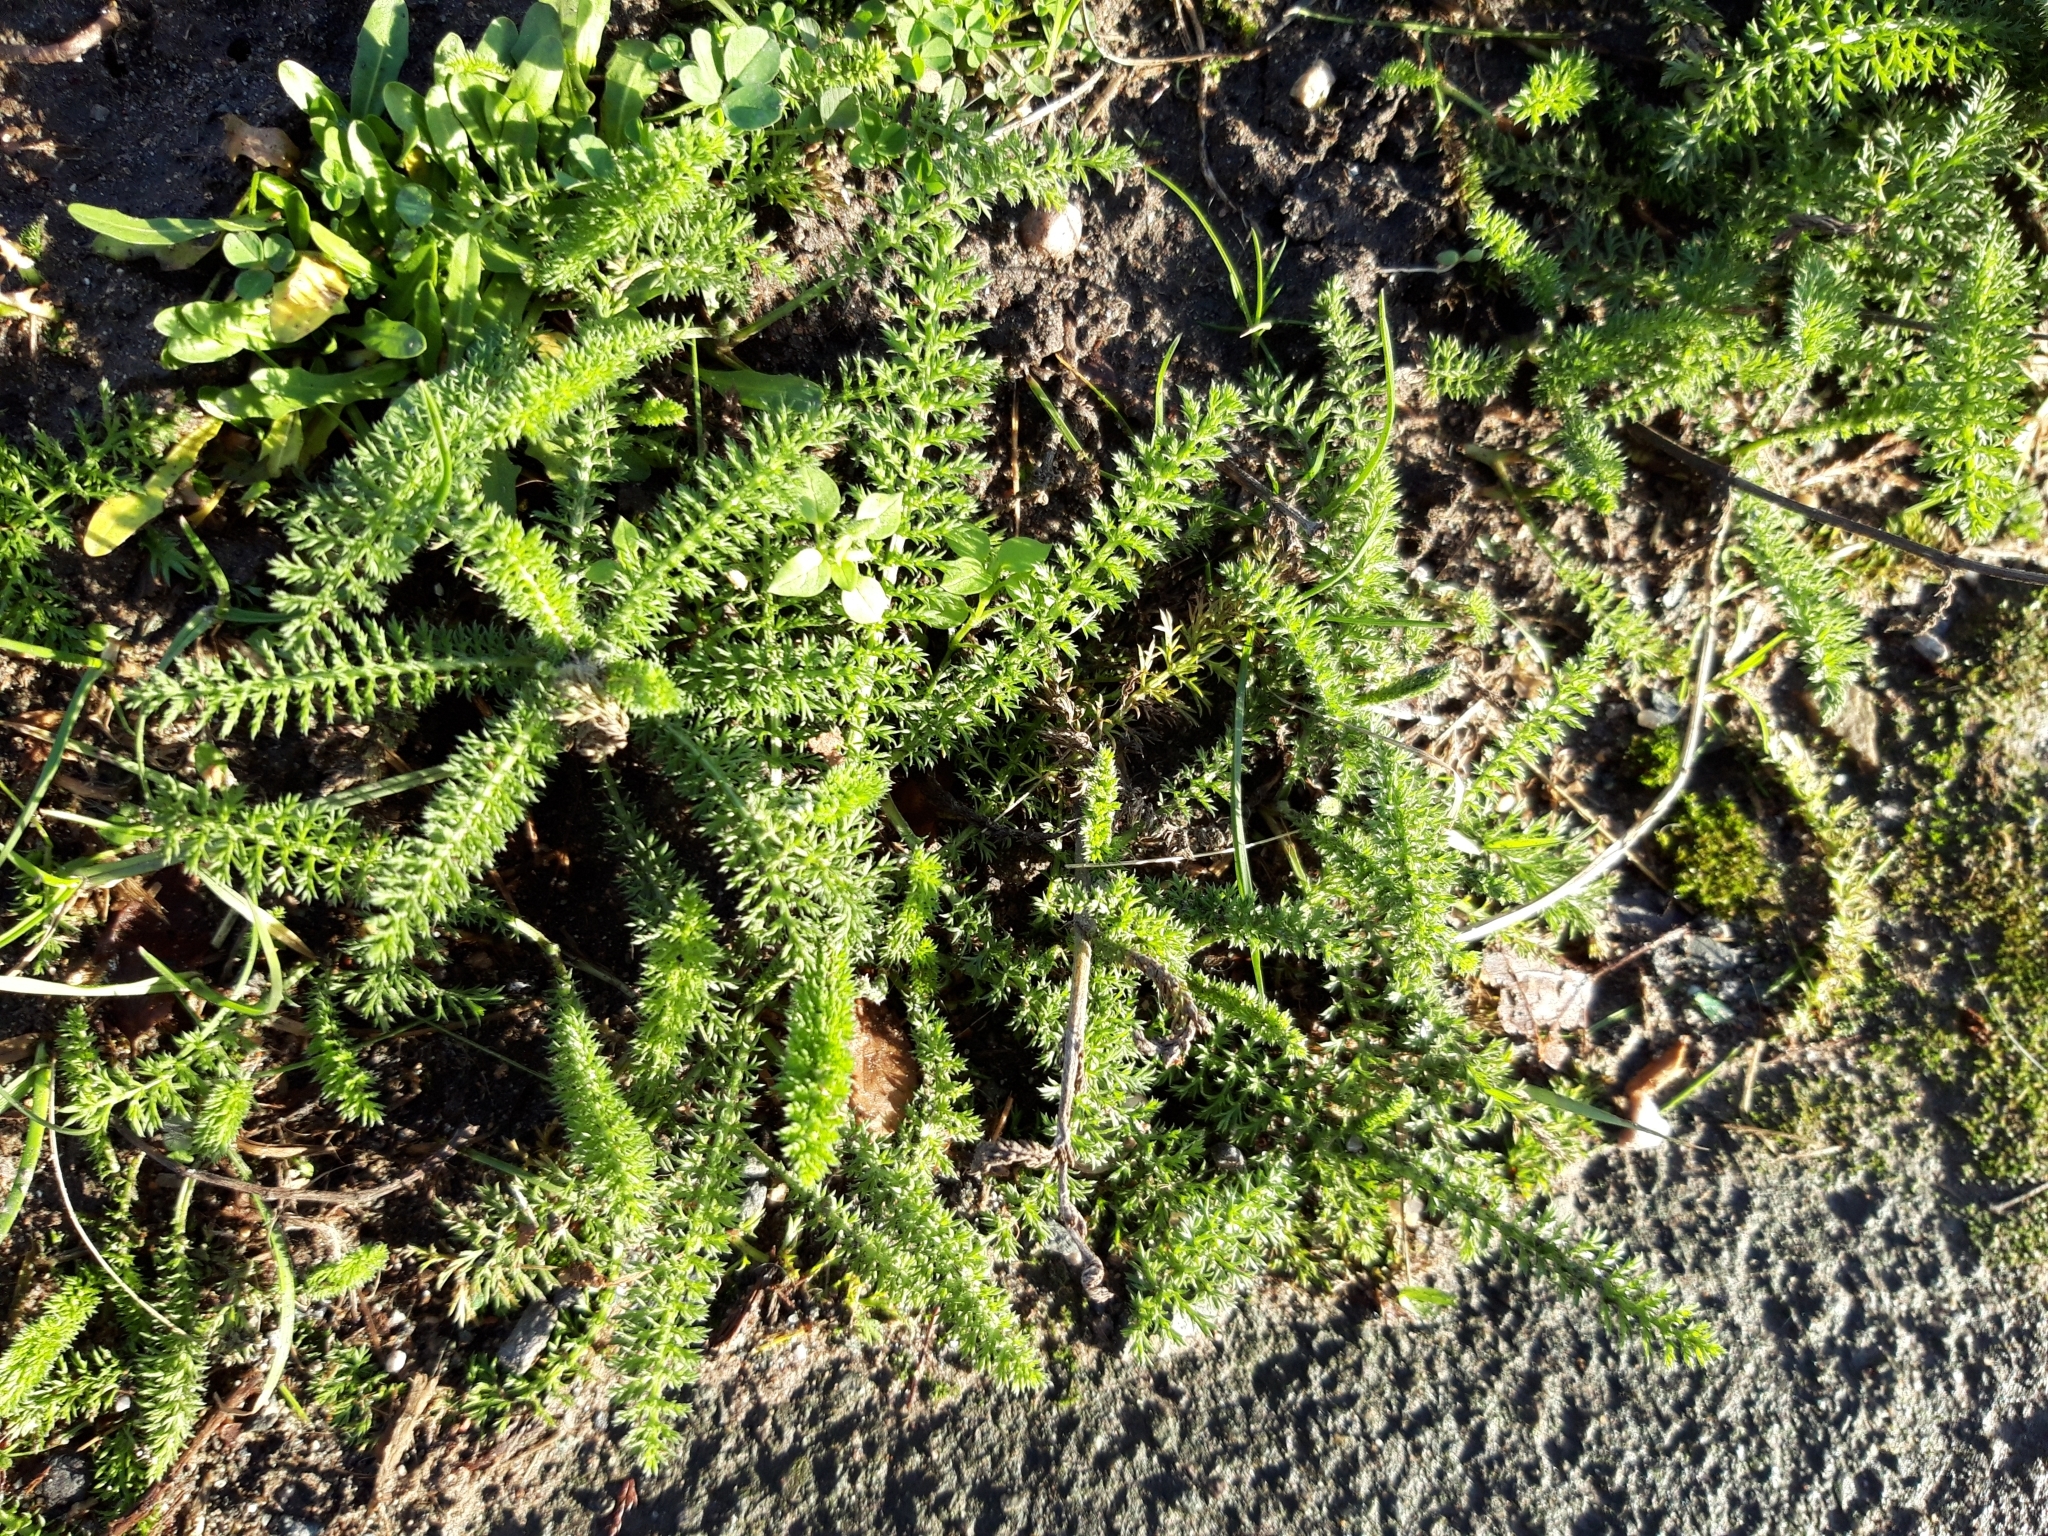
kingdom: Plantae
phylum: Tracheophyta
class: Magnoliopsida
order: Asterales
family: Asteraceae
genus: Achillea
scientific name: Achillea millefolium
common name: Yarrow
